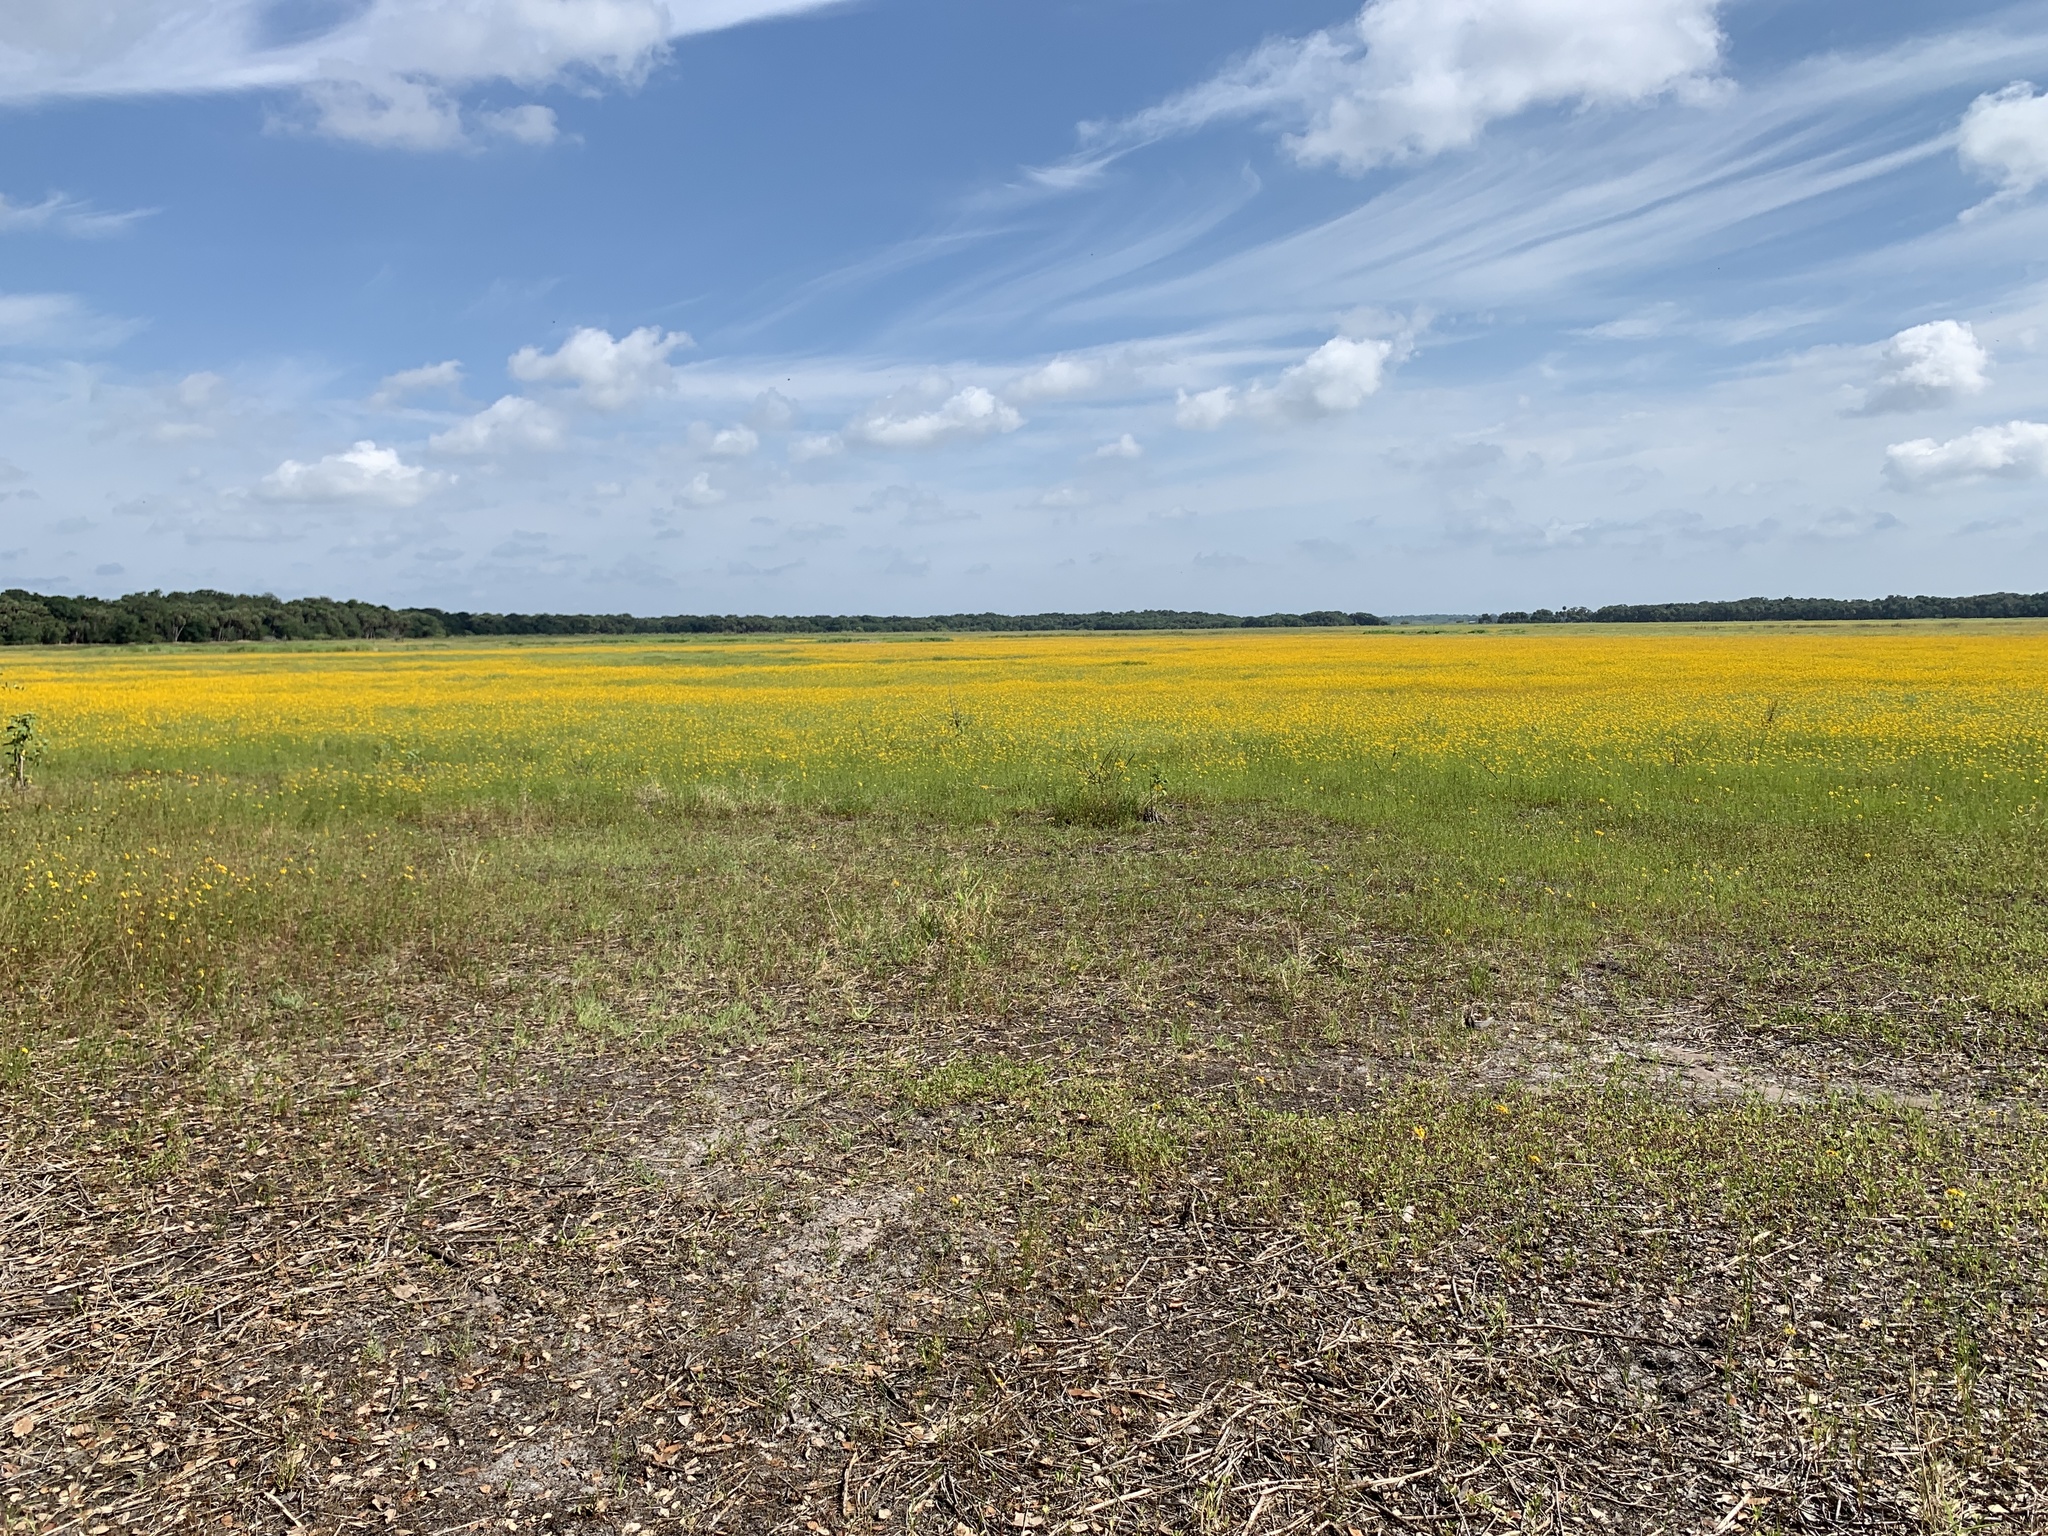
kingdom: Plantae
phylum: Tracheophyta
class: Magnoliopsida
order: Asterales
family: Asteraceae
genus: Coreopsis
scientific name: Coreopsis leavenworthii
